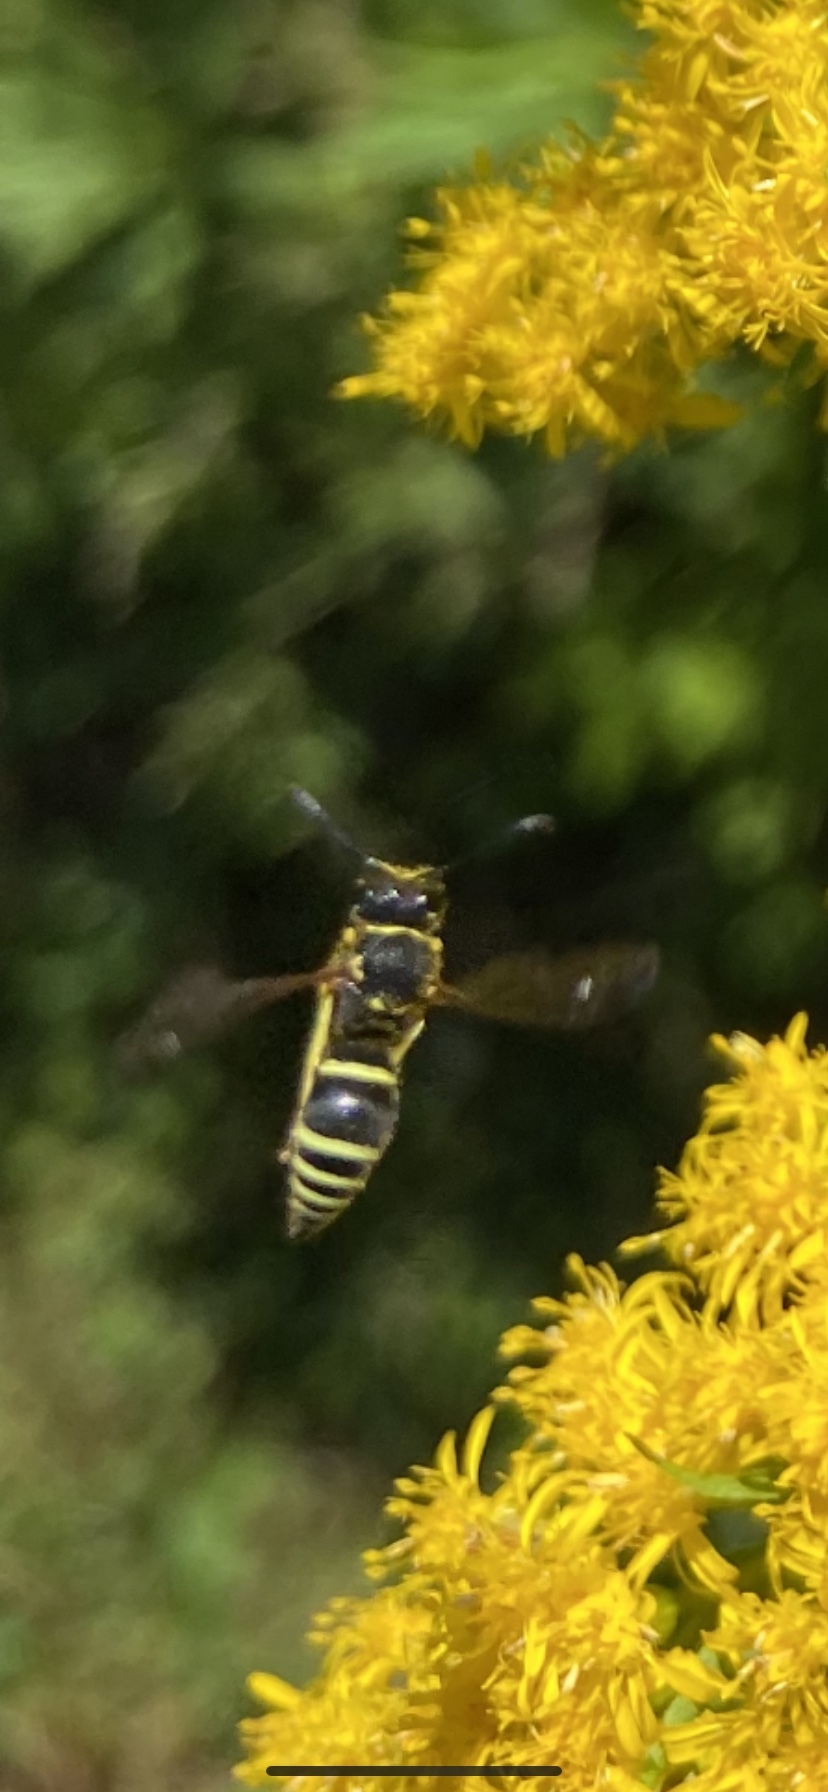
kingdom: Animalia
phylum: Arthropoda
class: Insecta
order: Hymenoptera
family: Vespidae
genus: Ancistrocerus
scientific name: Ancistrocerus
